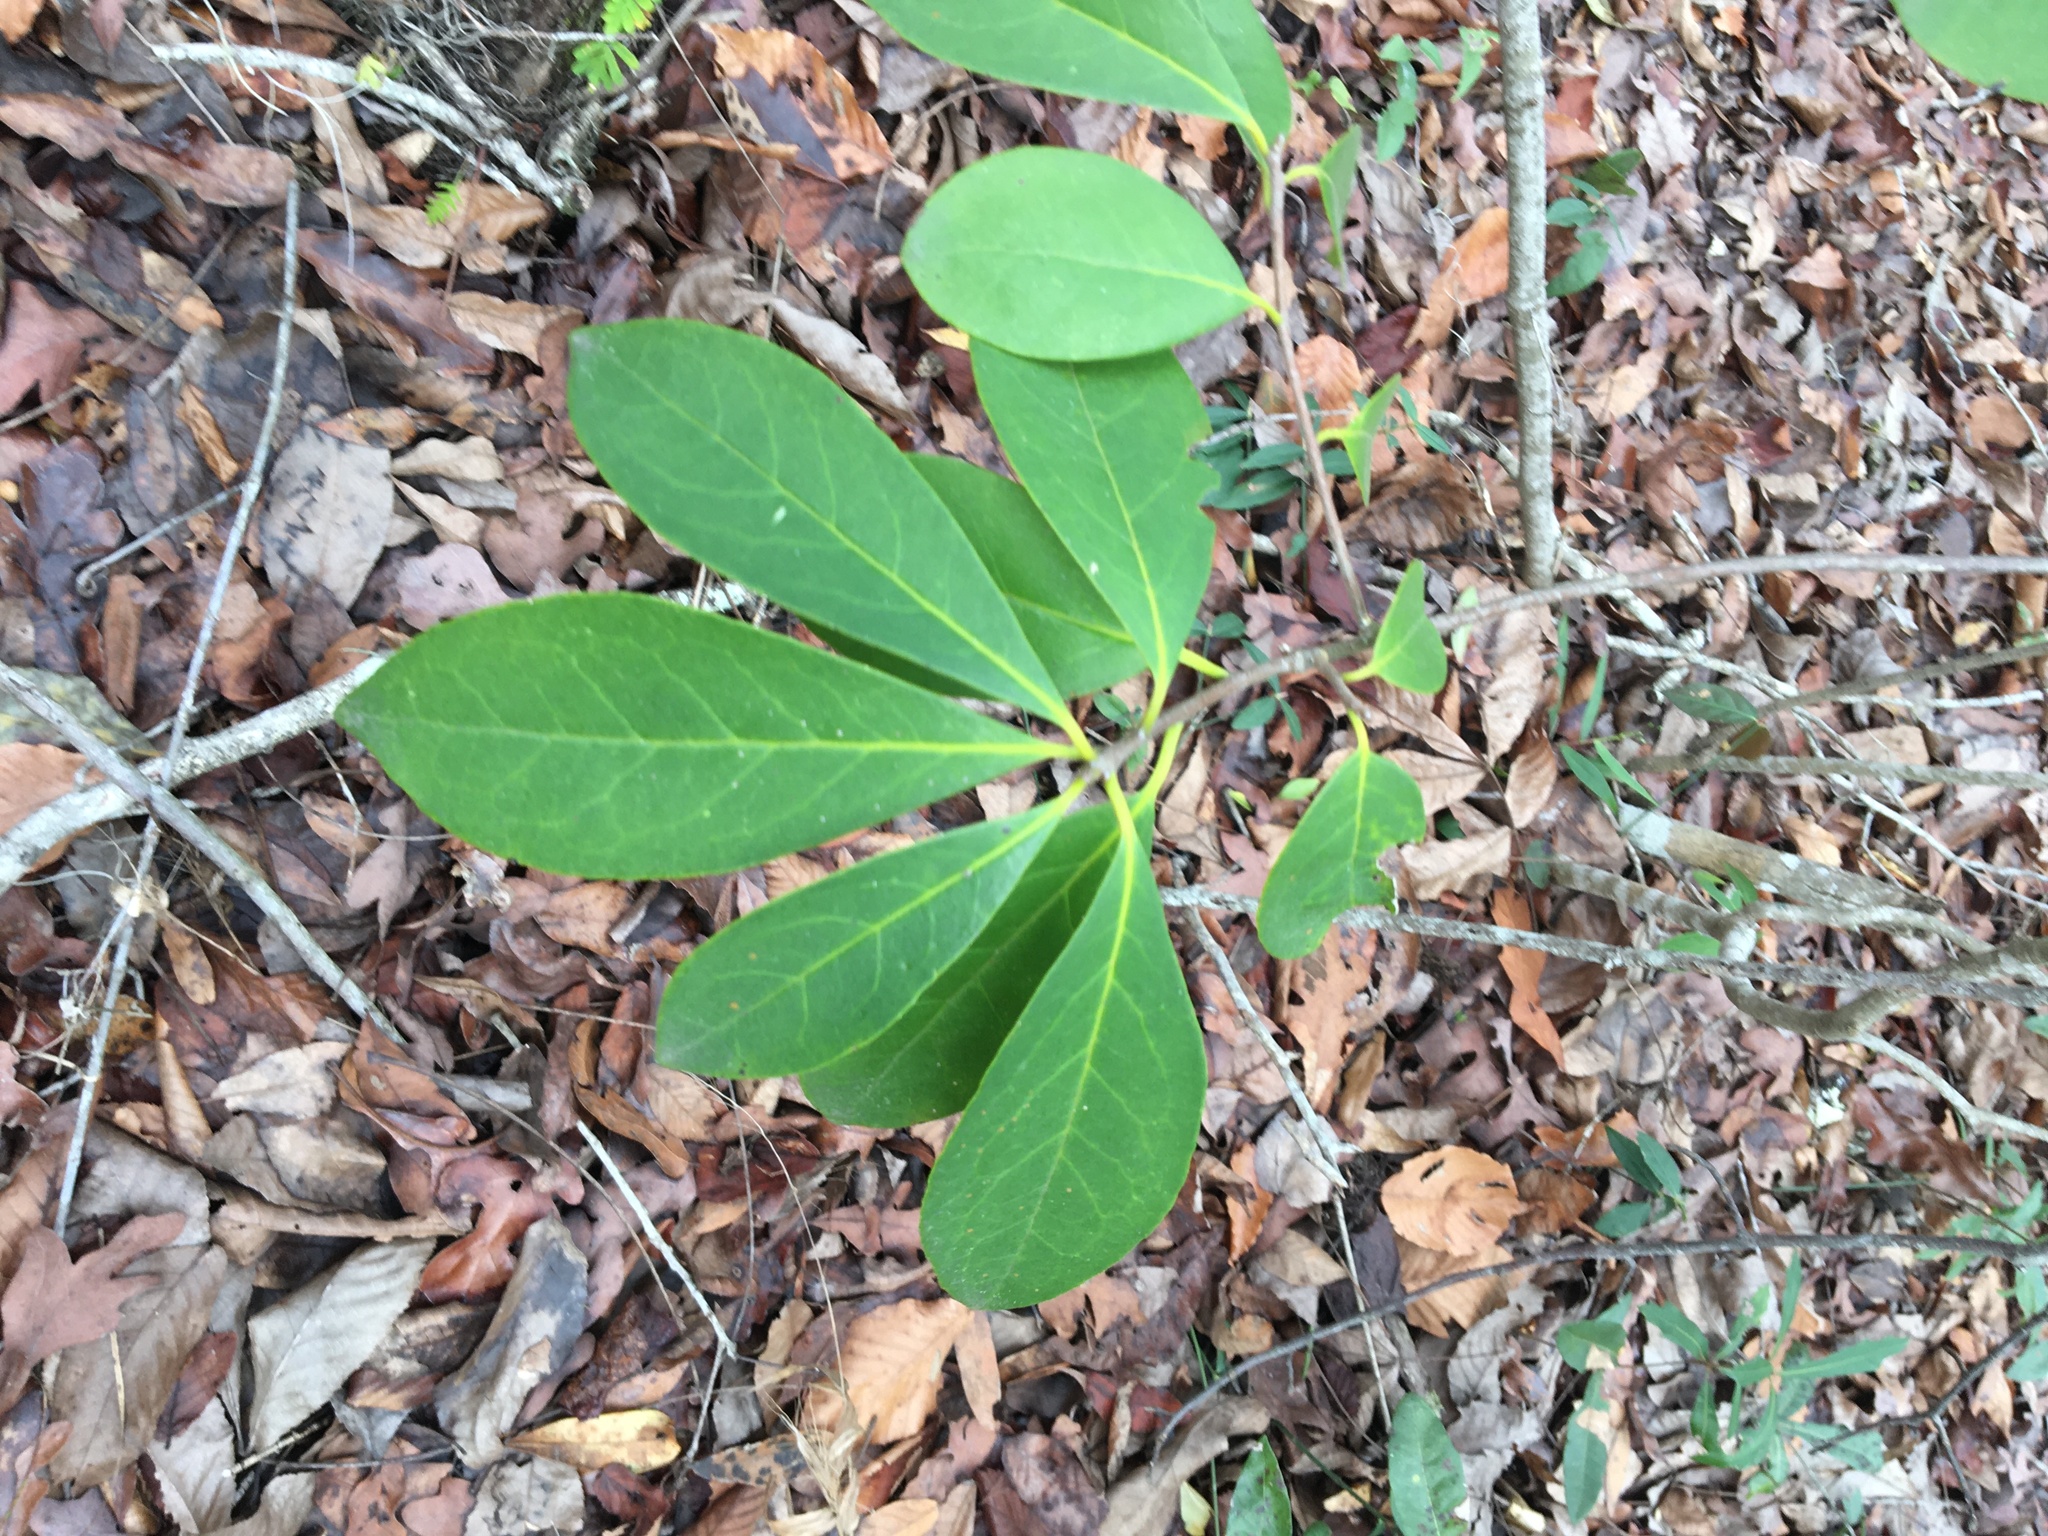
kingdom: Plantae
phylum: Tracheophyta
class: Magnoliopsida
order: Ericales
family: Symplocaceae
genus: Symplocos
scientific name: Symplocos tinctoria
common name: Horse-sugar
